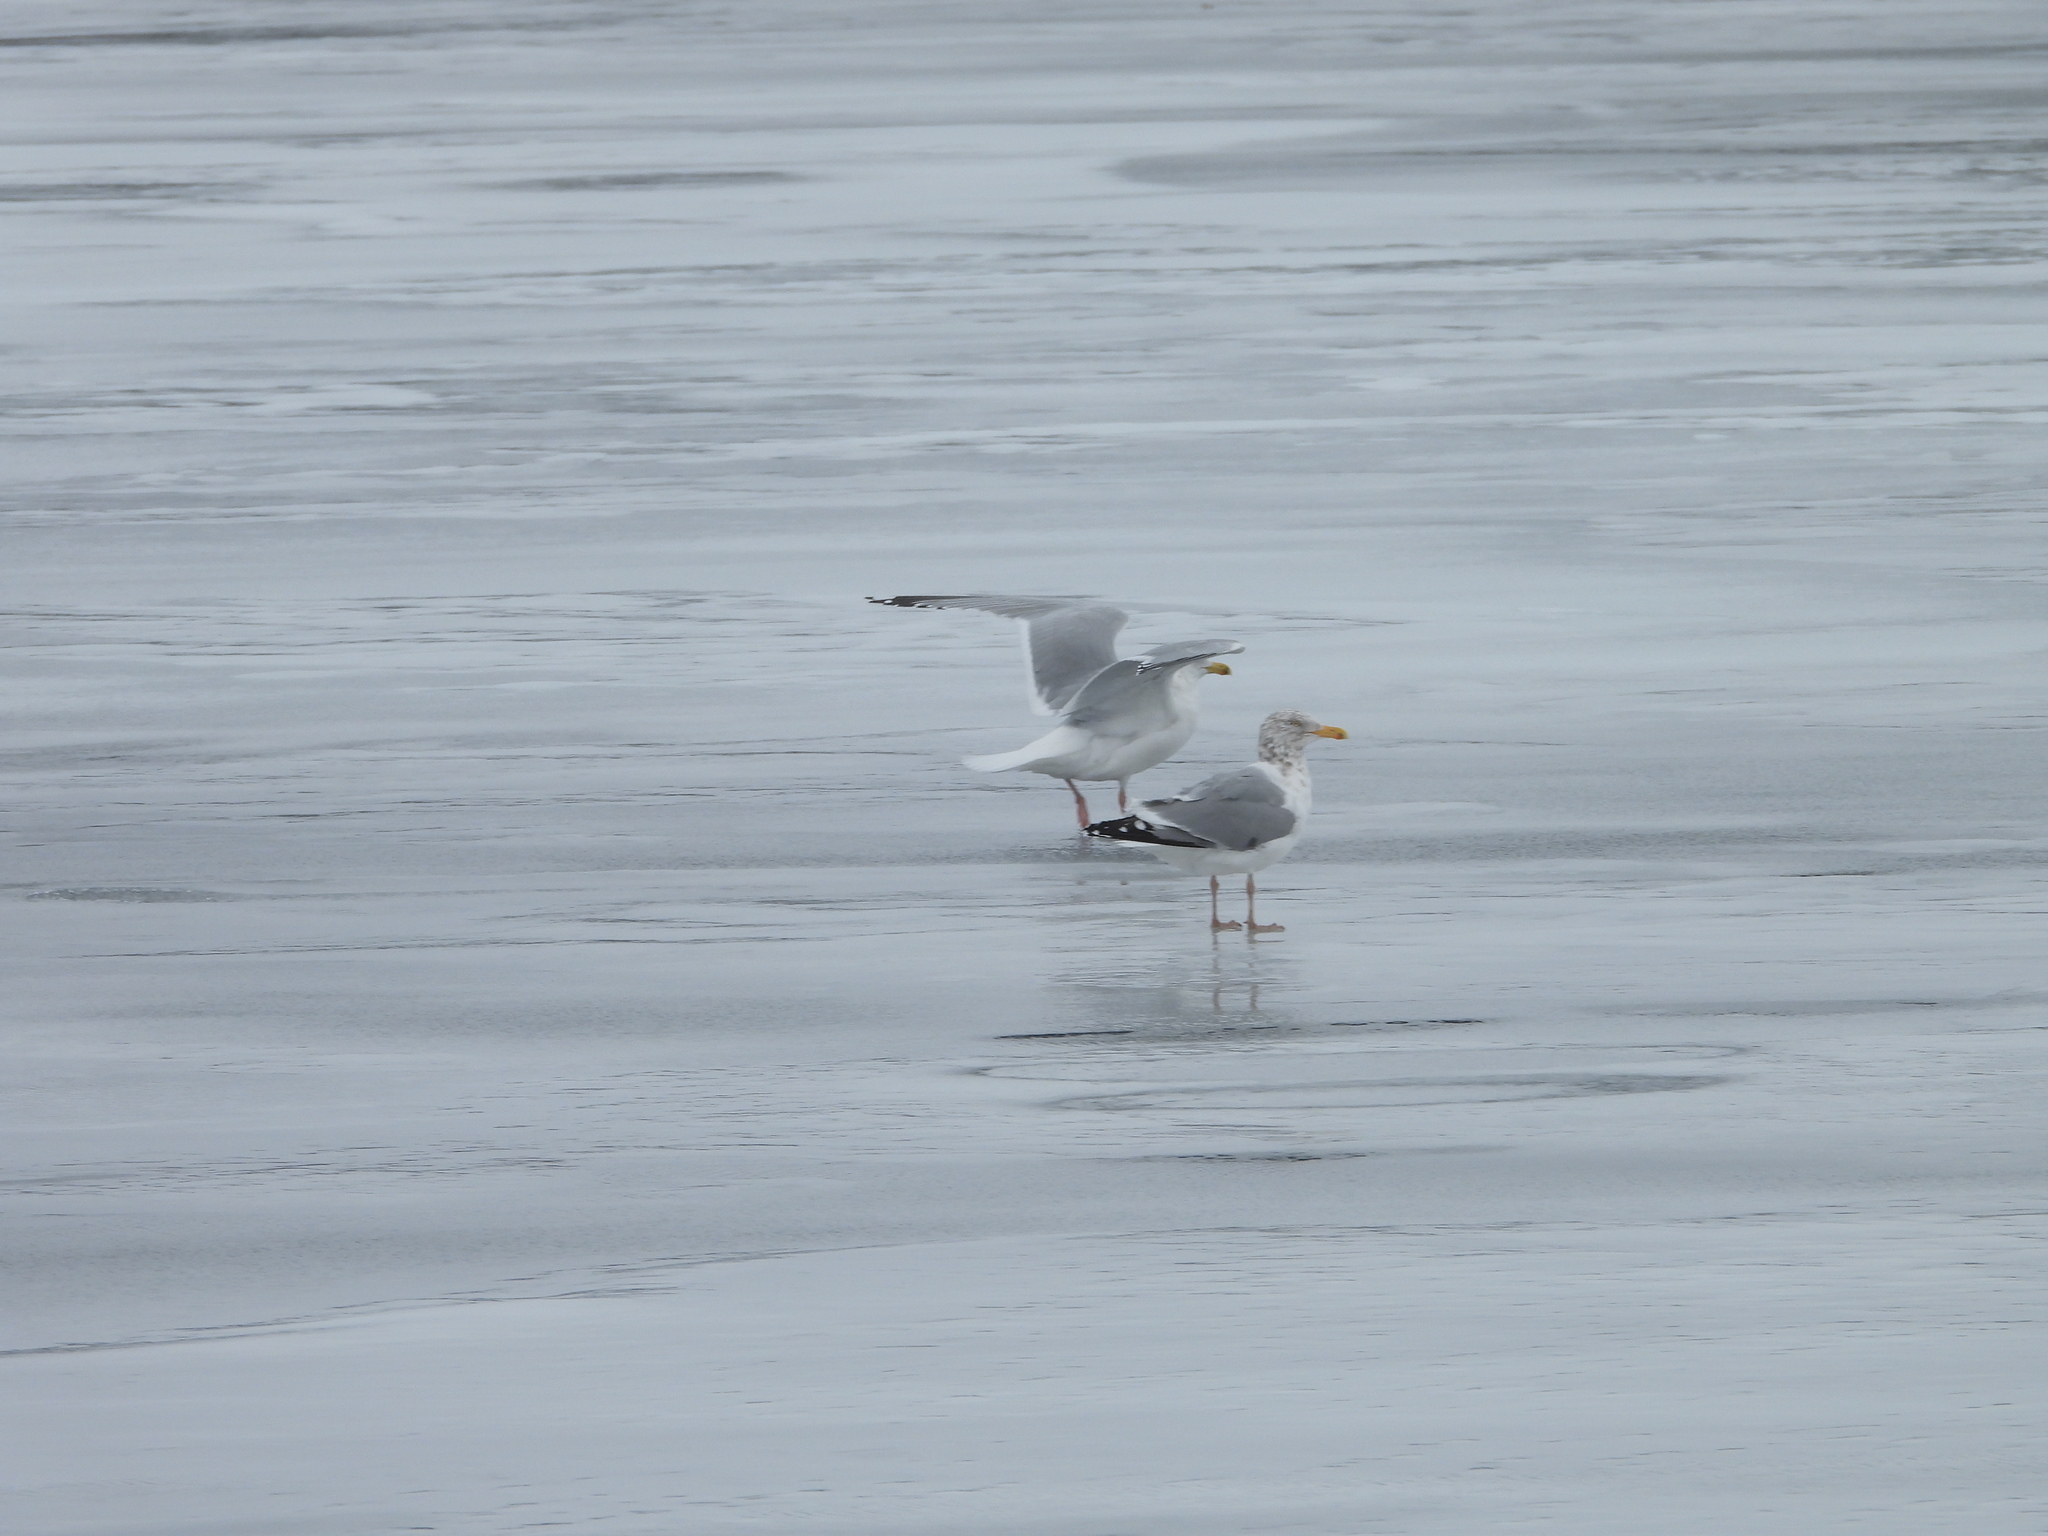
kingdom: Animalia
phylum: Chordata
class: Aves
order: Charadriiformes
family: Laridae
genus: Larus
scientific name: Larus argentatus
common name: Herring gull
